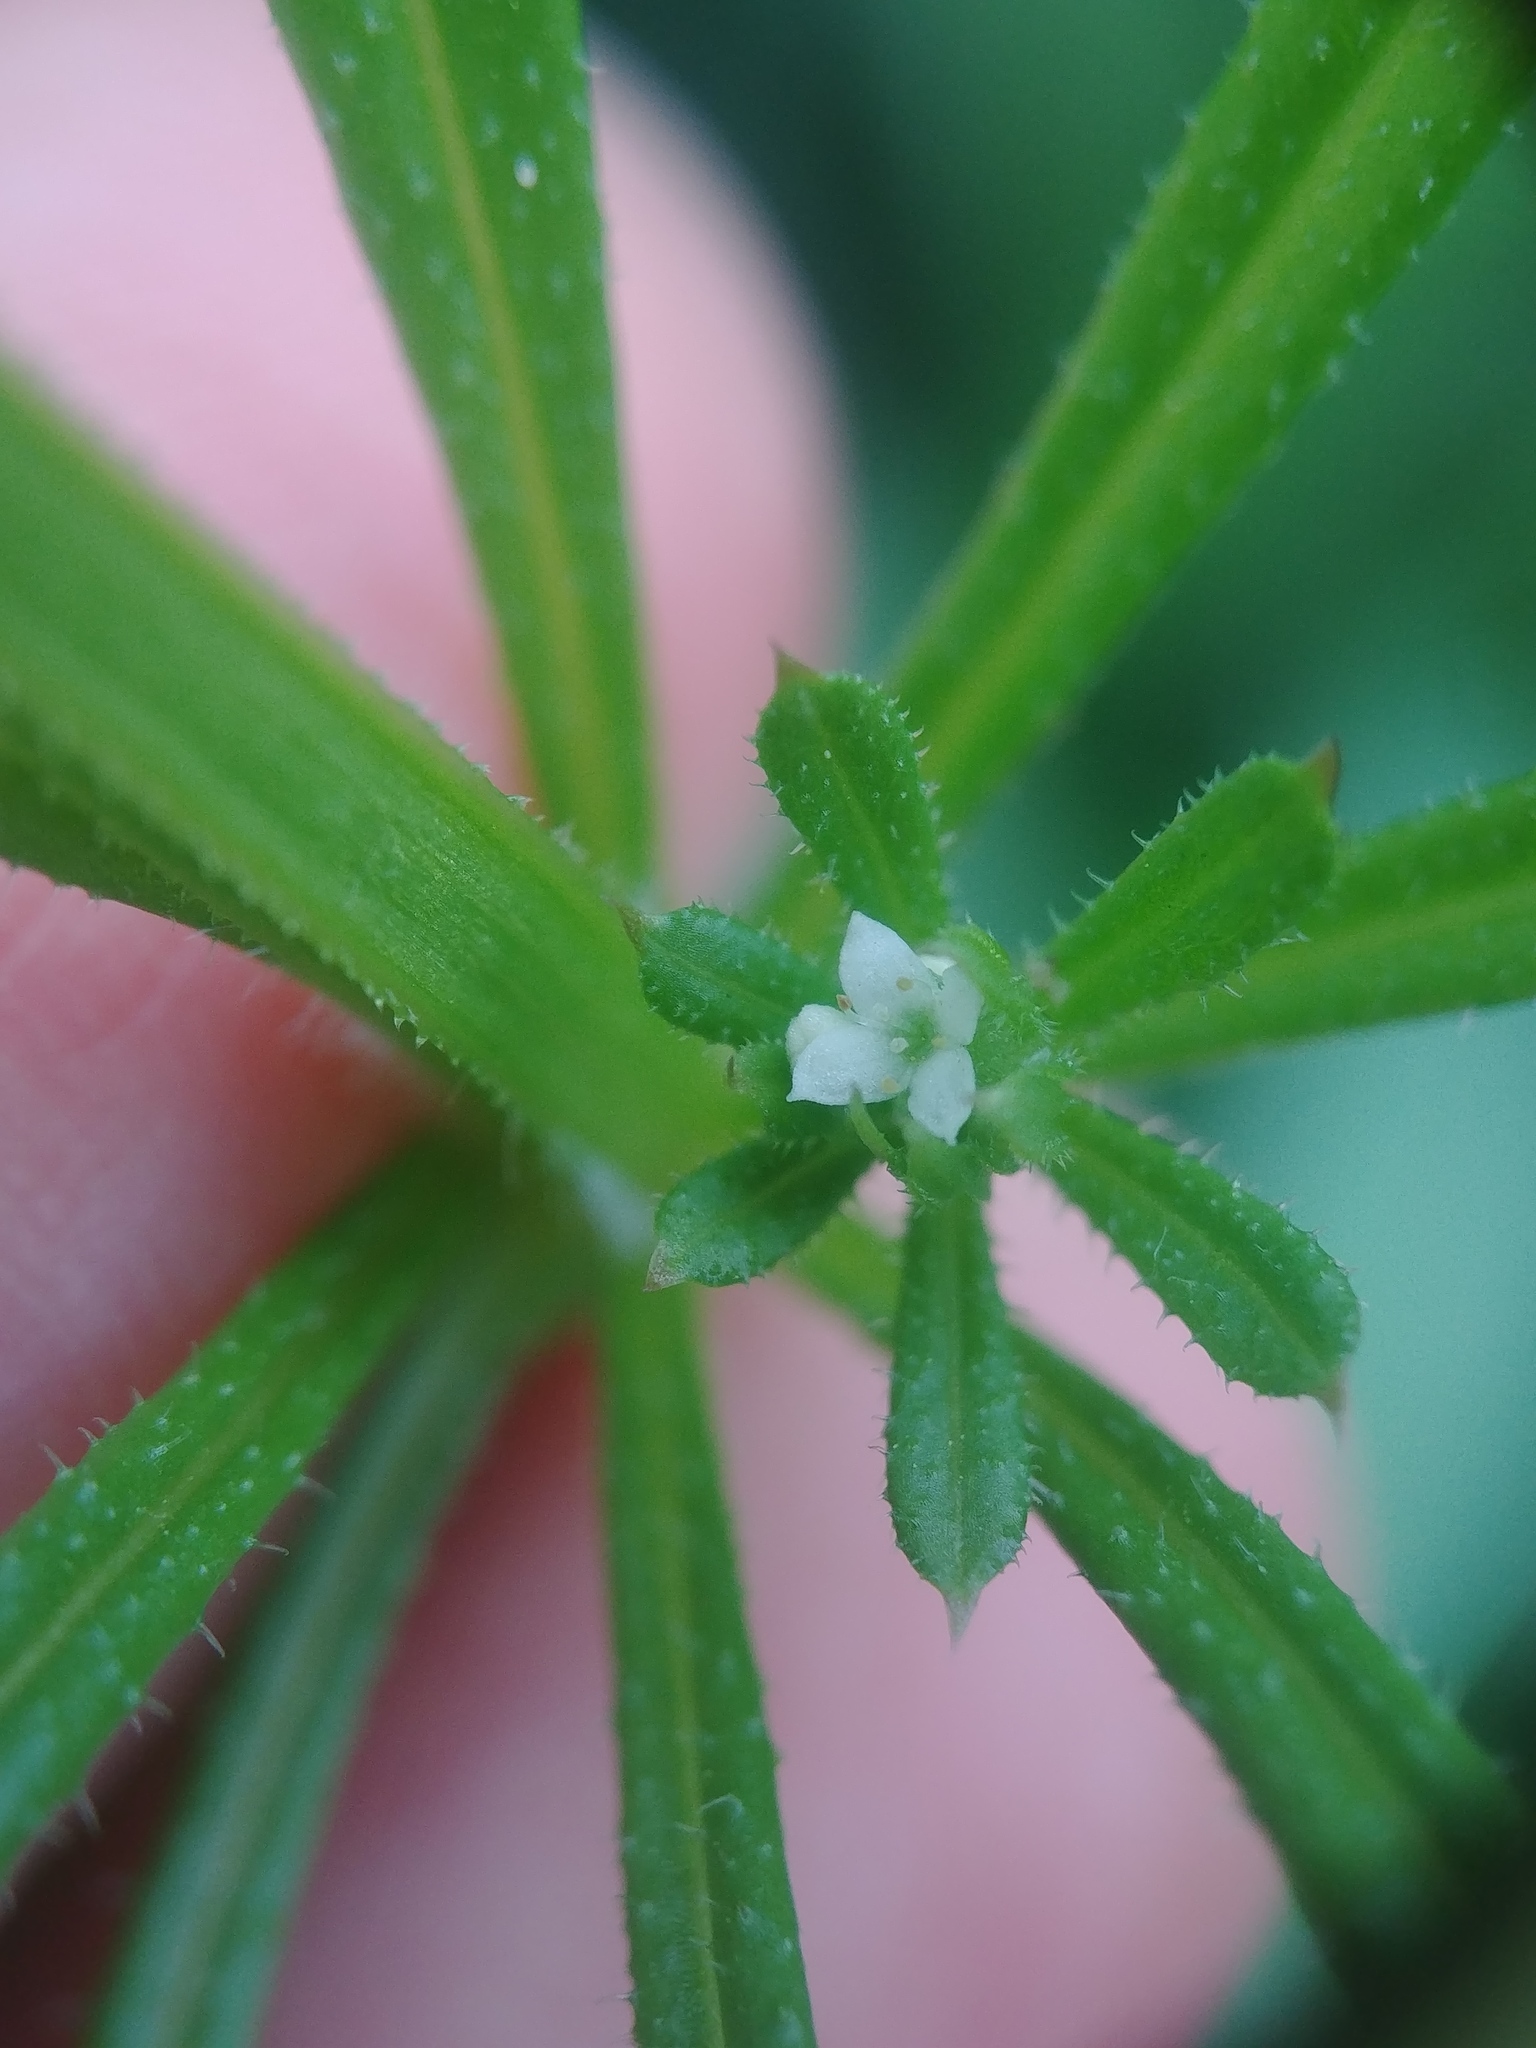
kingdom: Plantae
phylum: Tracheophyta
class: Magnoliopsida
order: Gentianales
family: Rubiaceae
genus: Galium
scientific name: Galium aparine
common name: Cleavers
